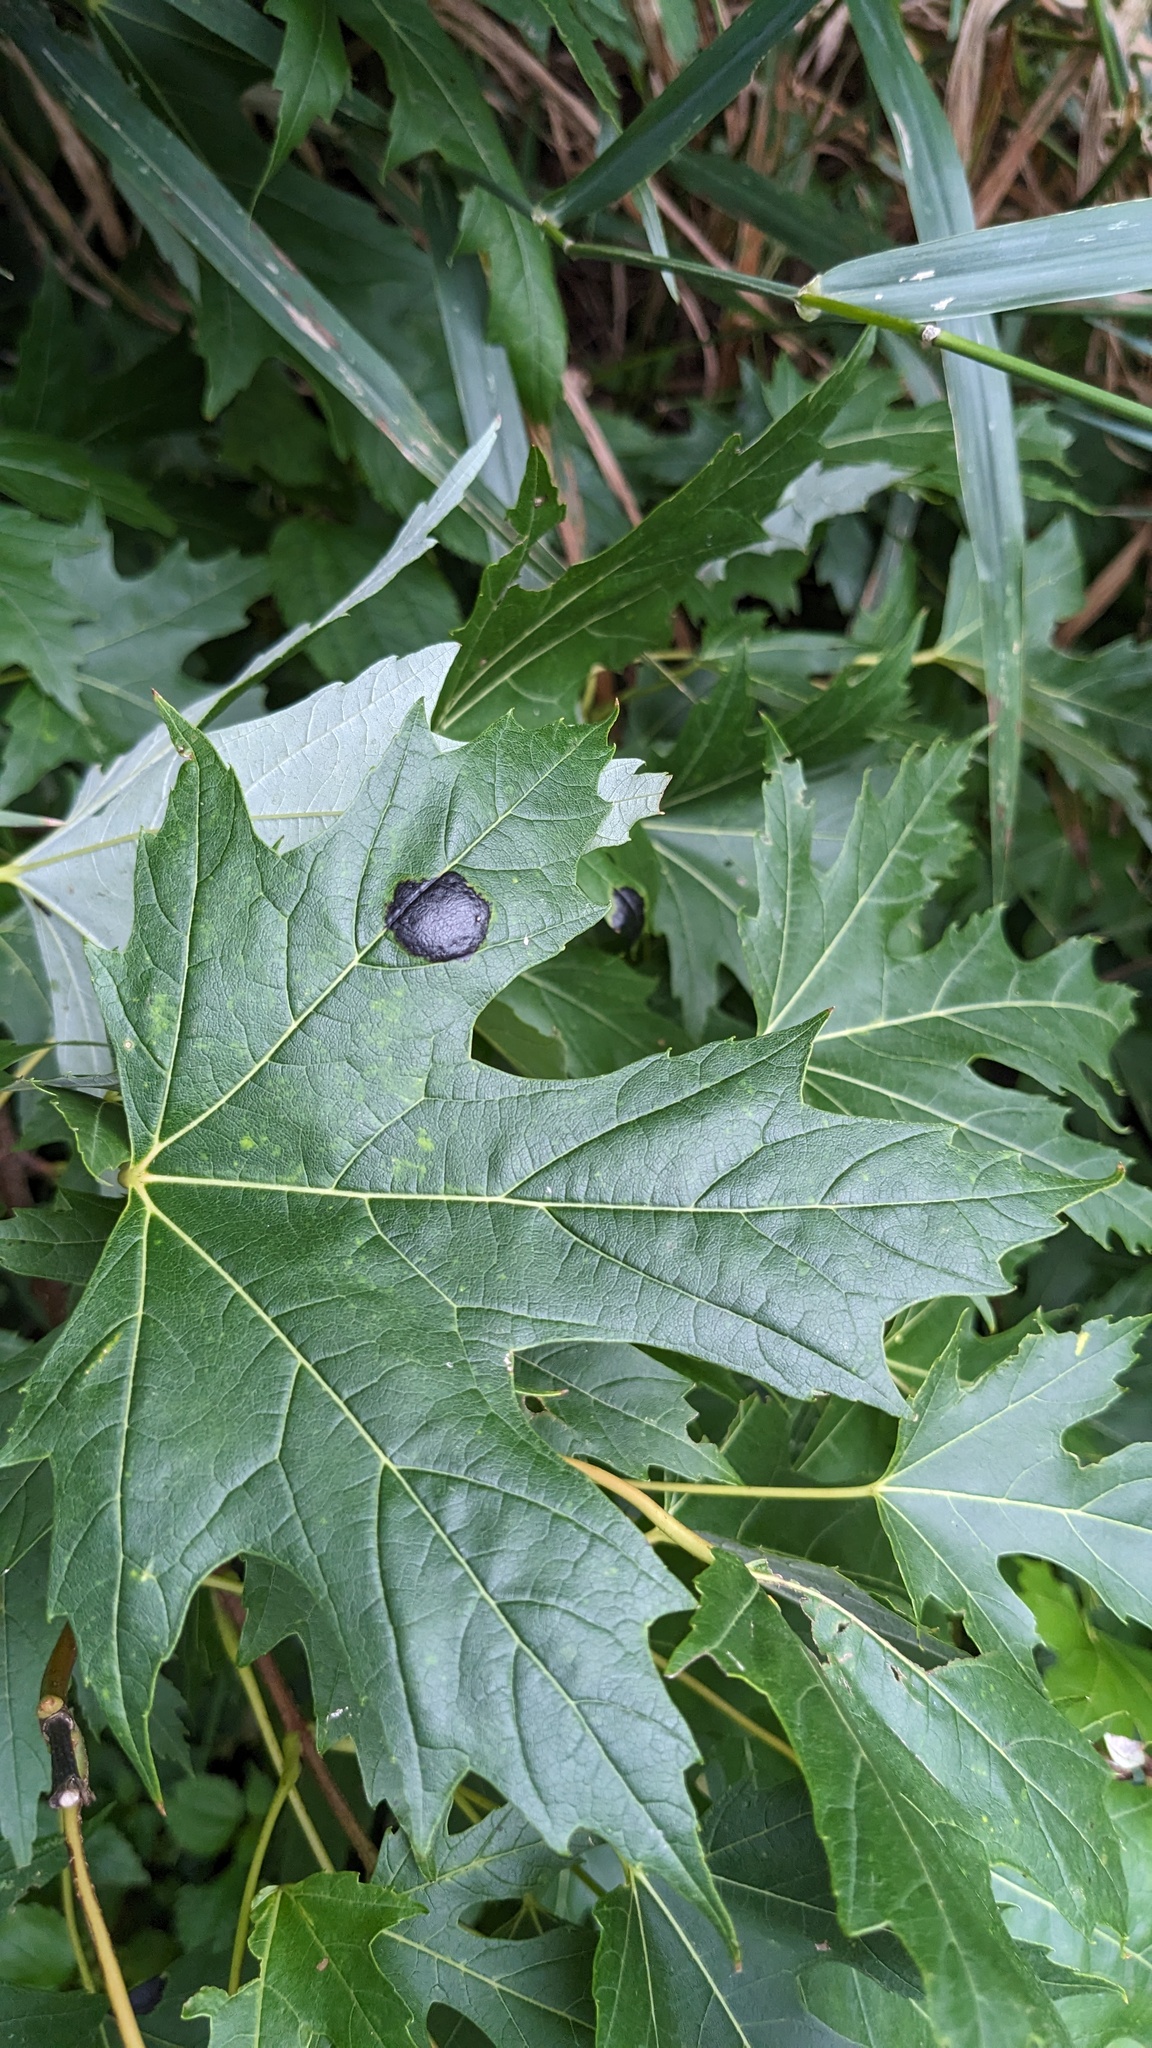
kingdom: Fungi
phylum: Ascomycota
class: Leotiomycetes
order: Rhytismatales
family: Rhytismataceae
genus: Rhytisma
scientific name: Rhytisma americanum
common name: American tar spot
